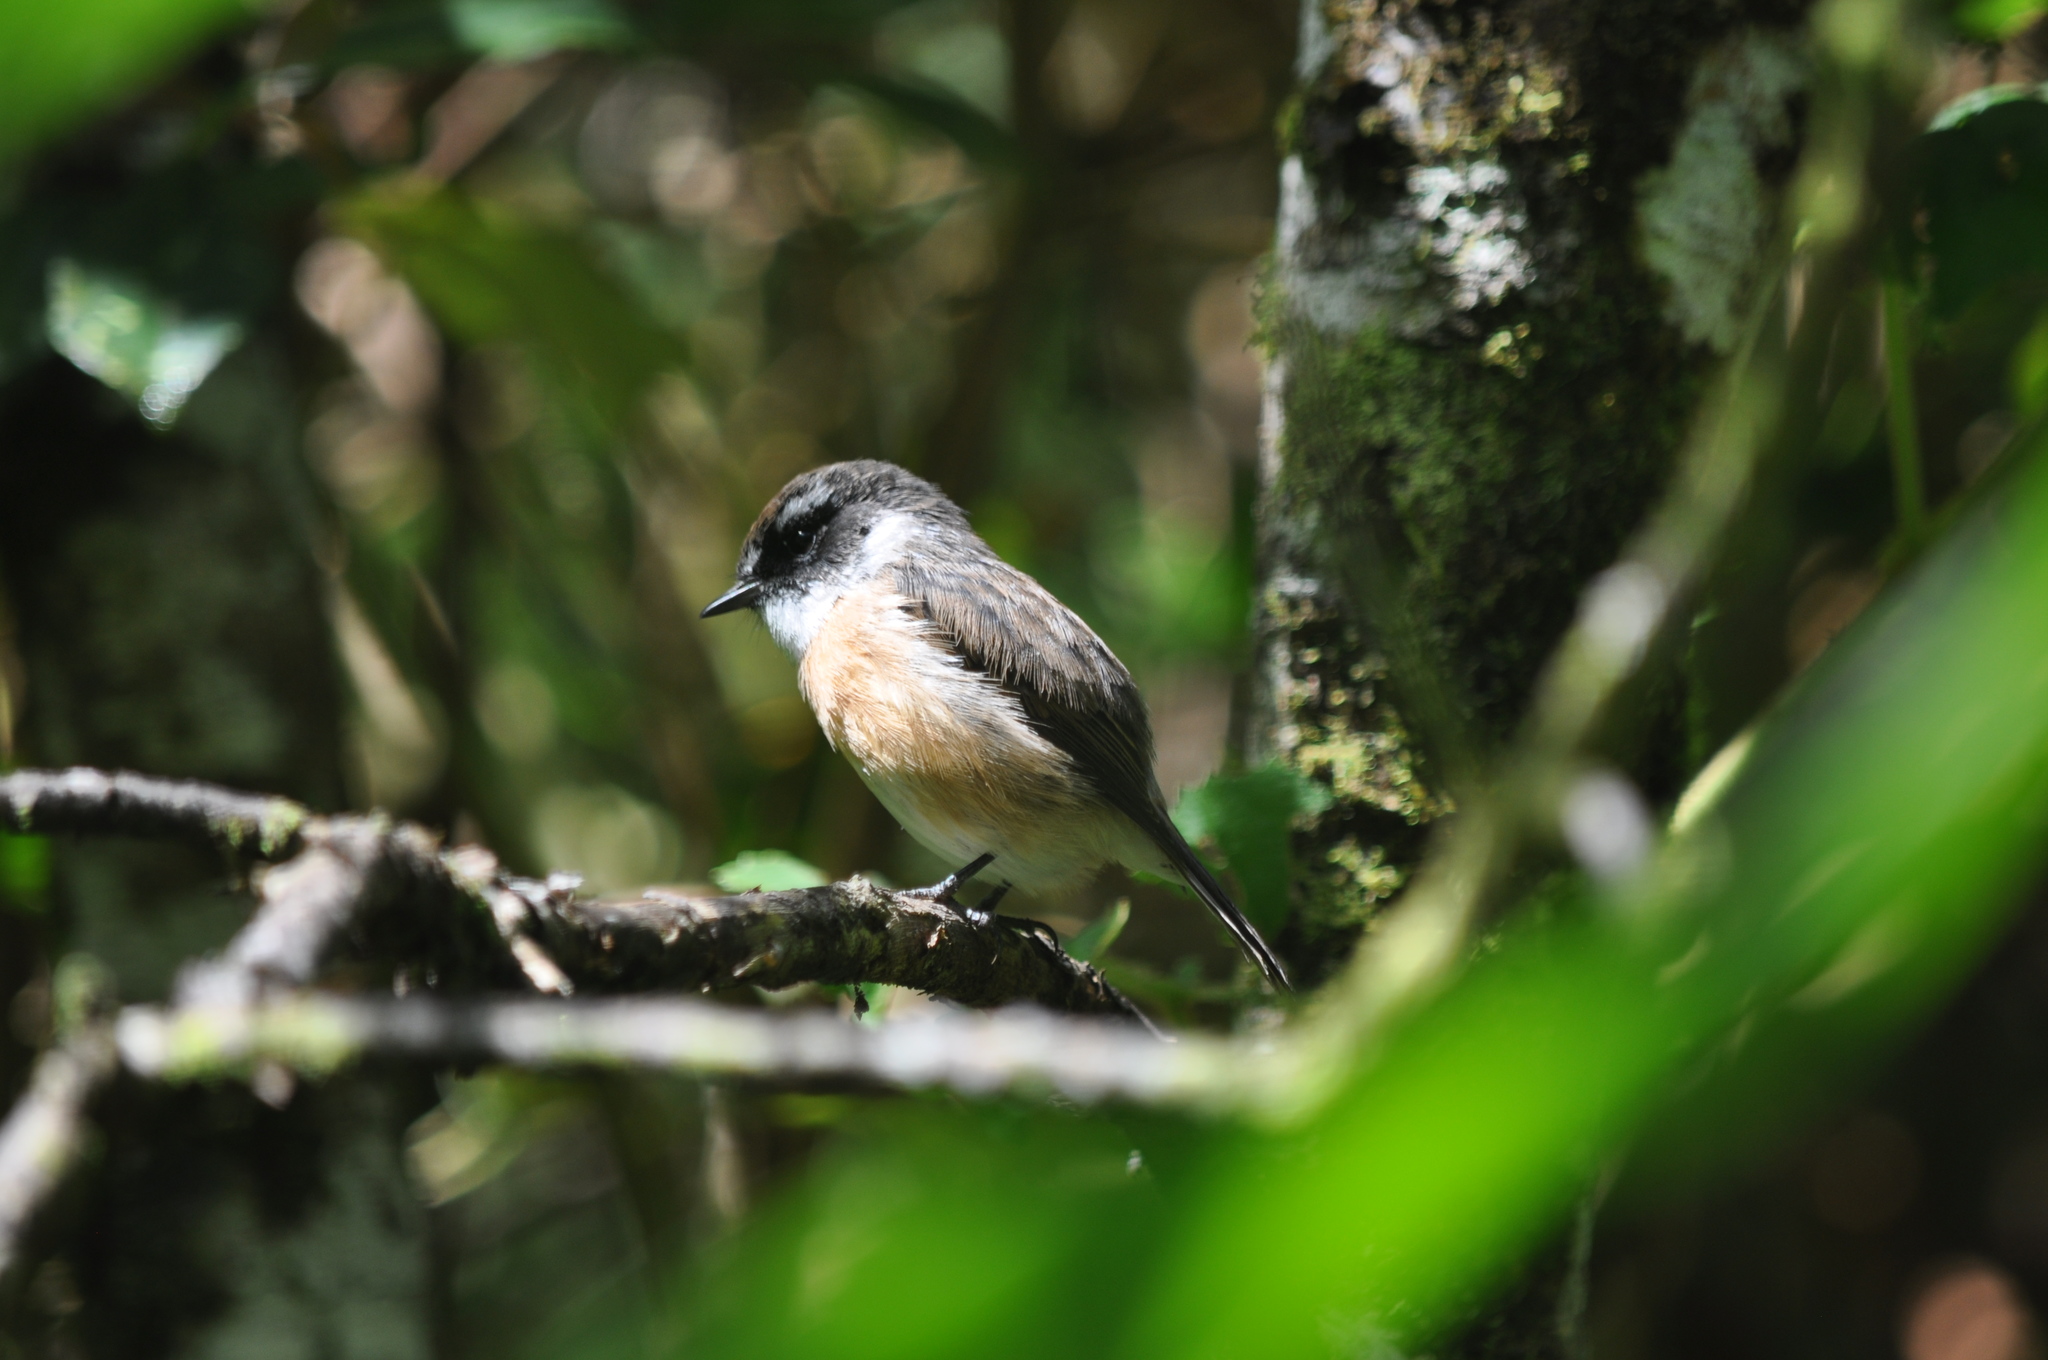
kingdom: Animalia
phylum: Chordata
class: Aves
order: Passeriformes
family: Muscicapidae
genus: Saxicola
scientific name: Saxicola tectes
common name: Reunion stonechat
